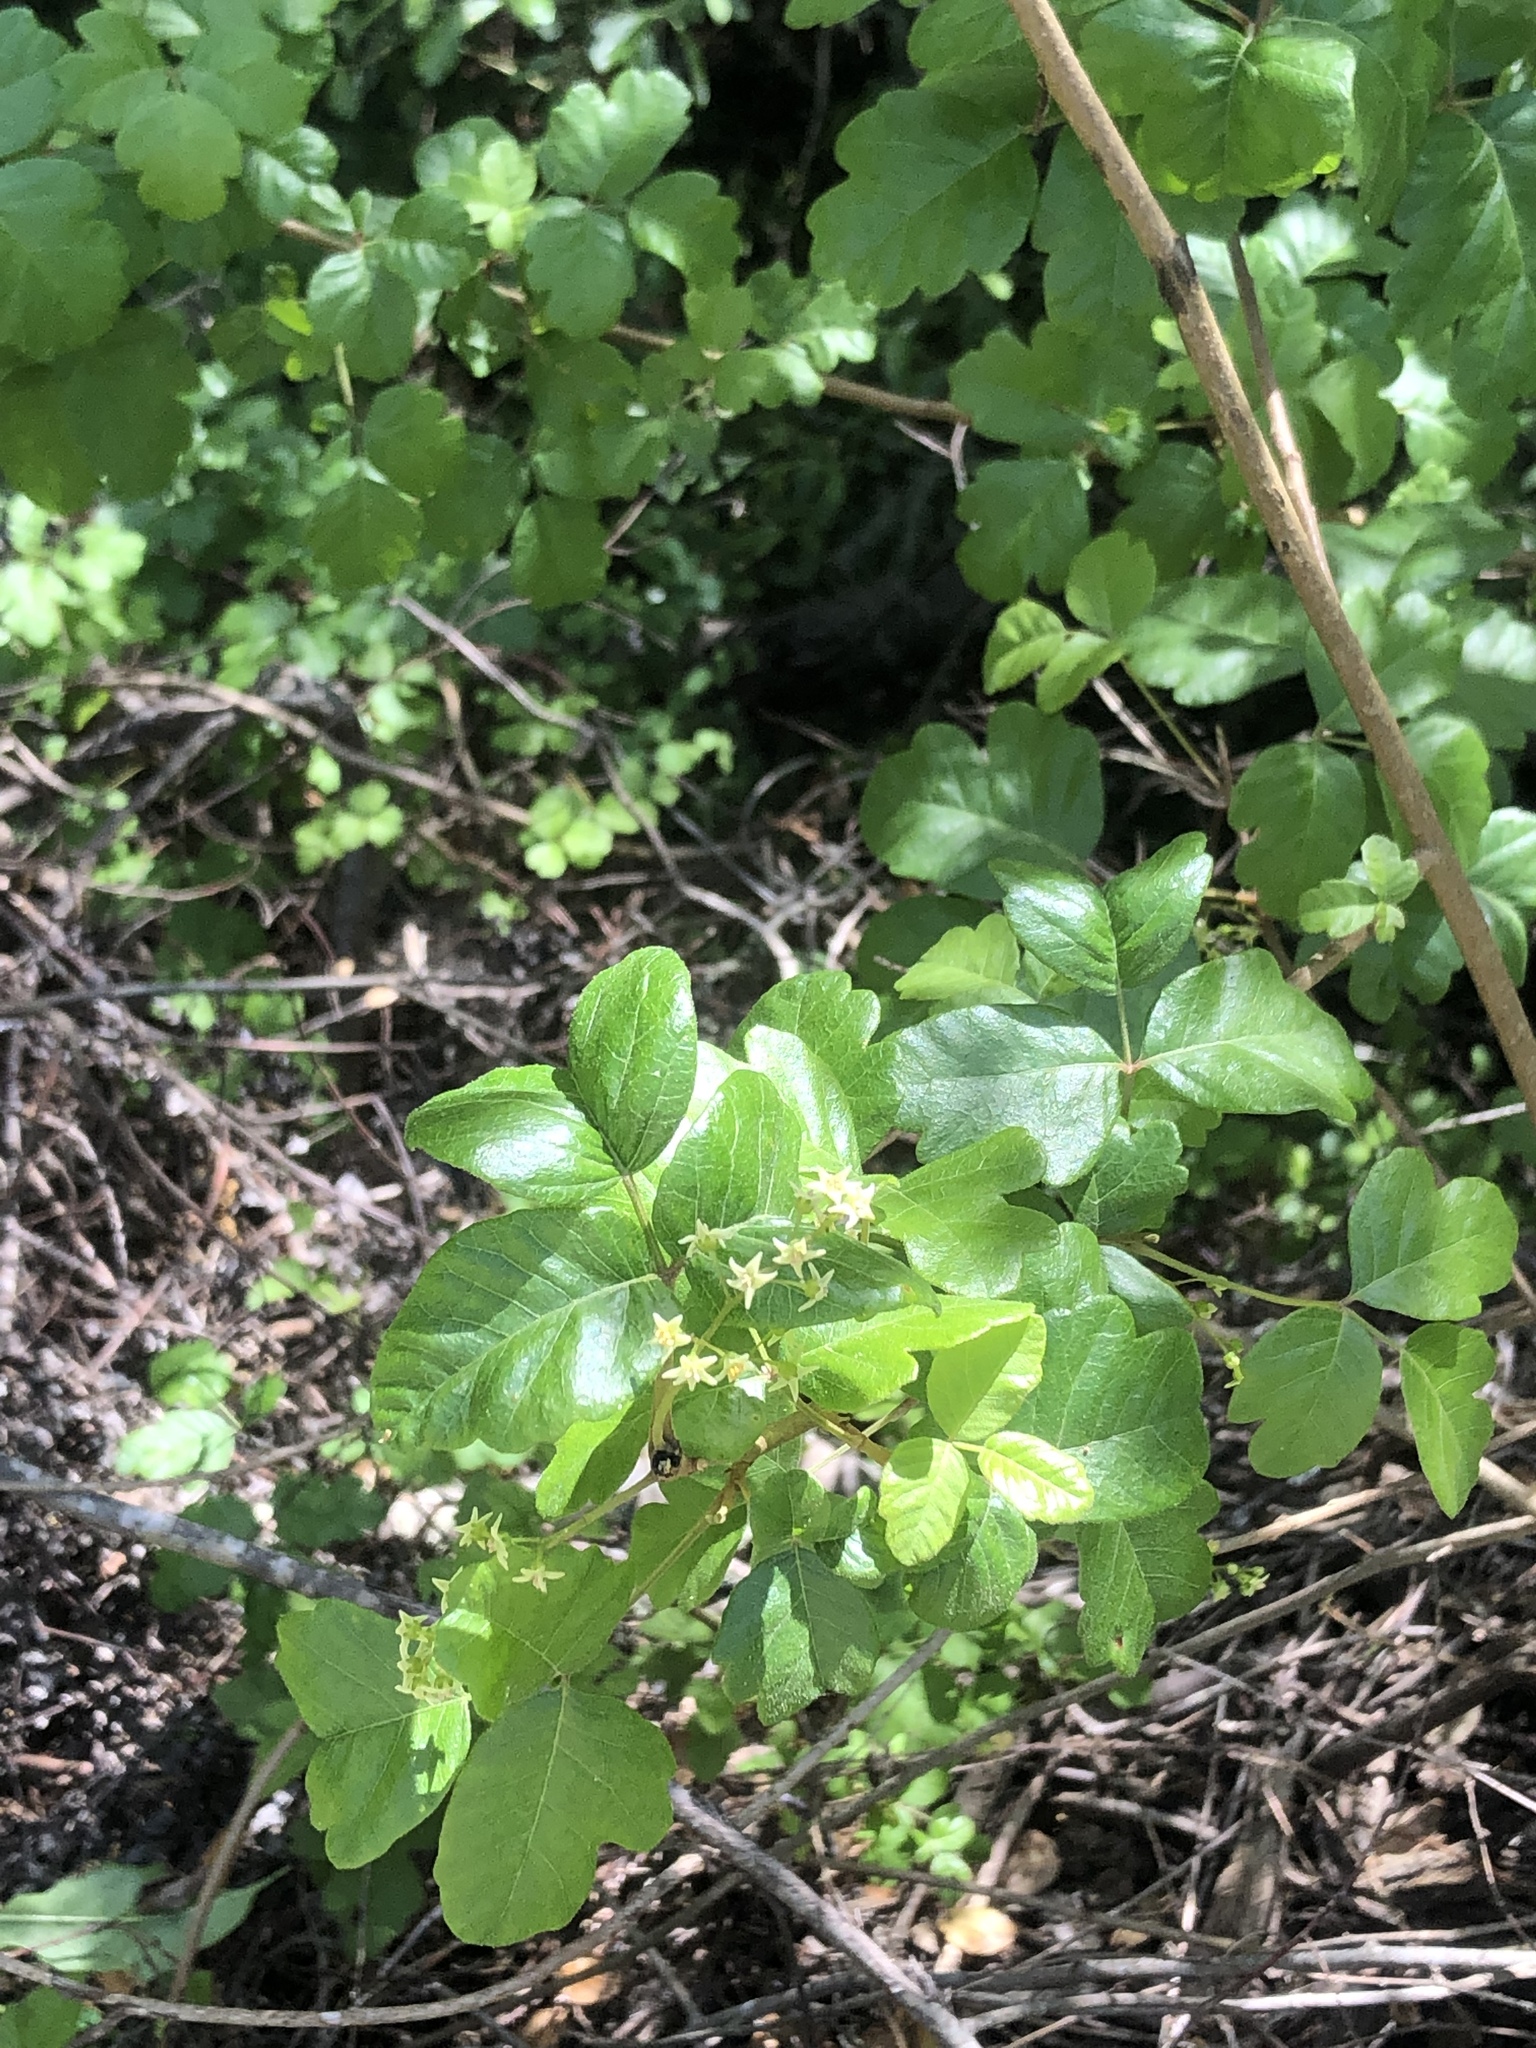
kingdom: Plantae
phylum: Tracheophyta
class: Magnoliopsida
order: Sapindales
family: Anacardiaceae
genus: Toxicodendron
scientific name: Toxicodendron diversilobum
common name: Pacific poison-oak
